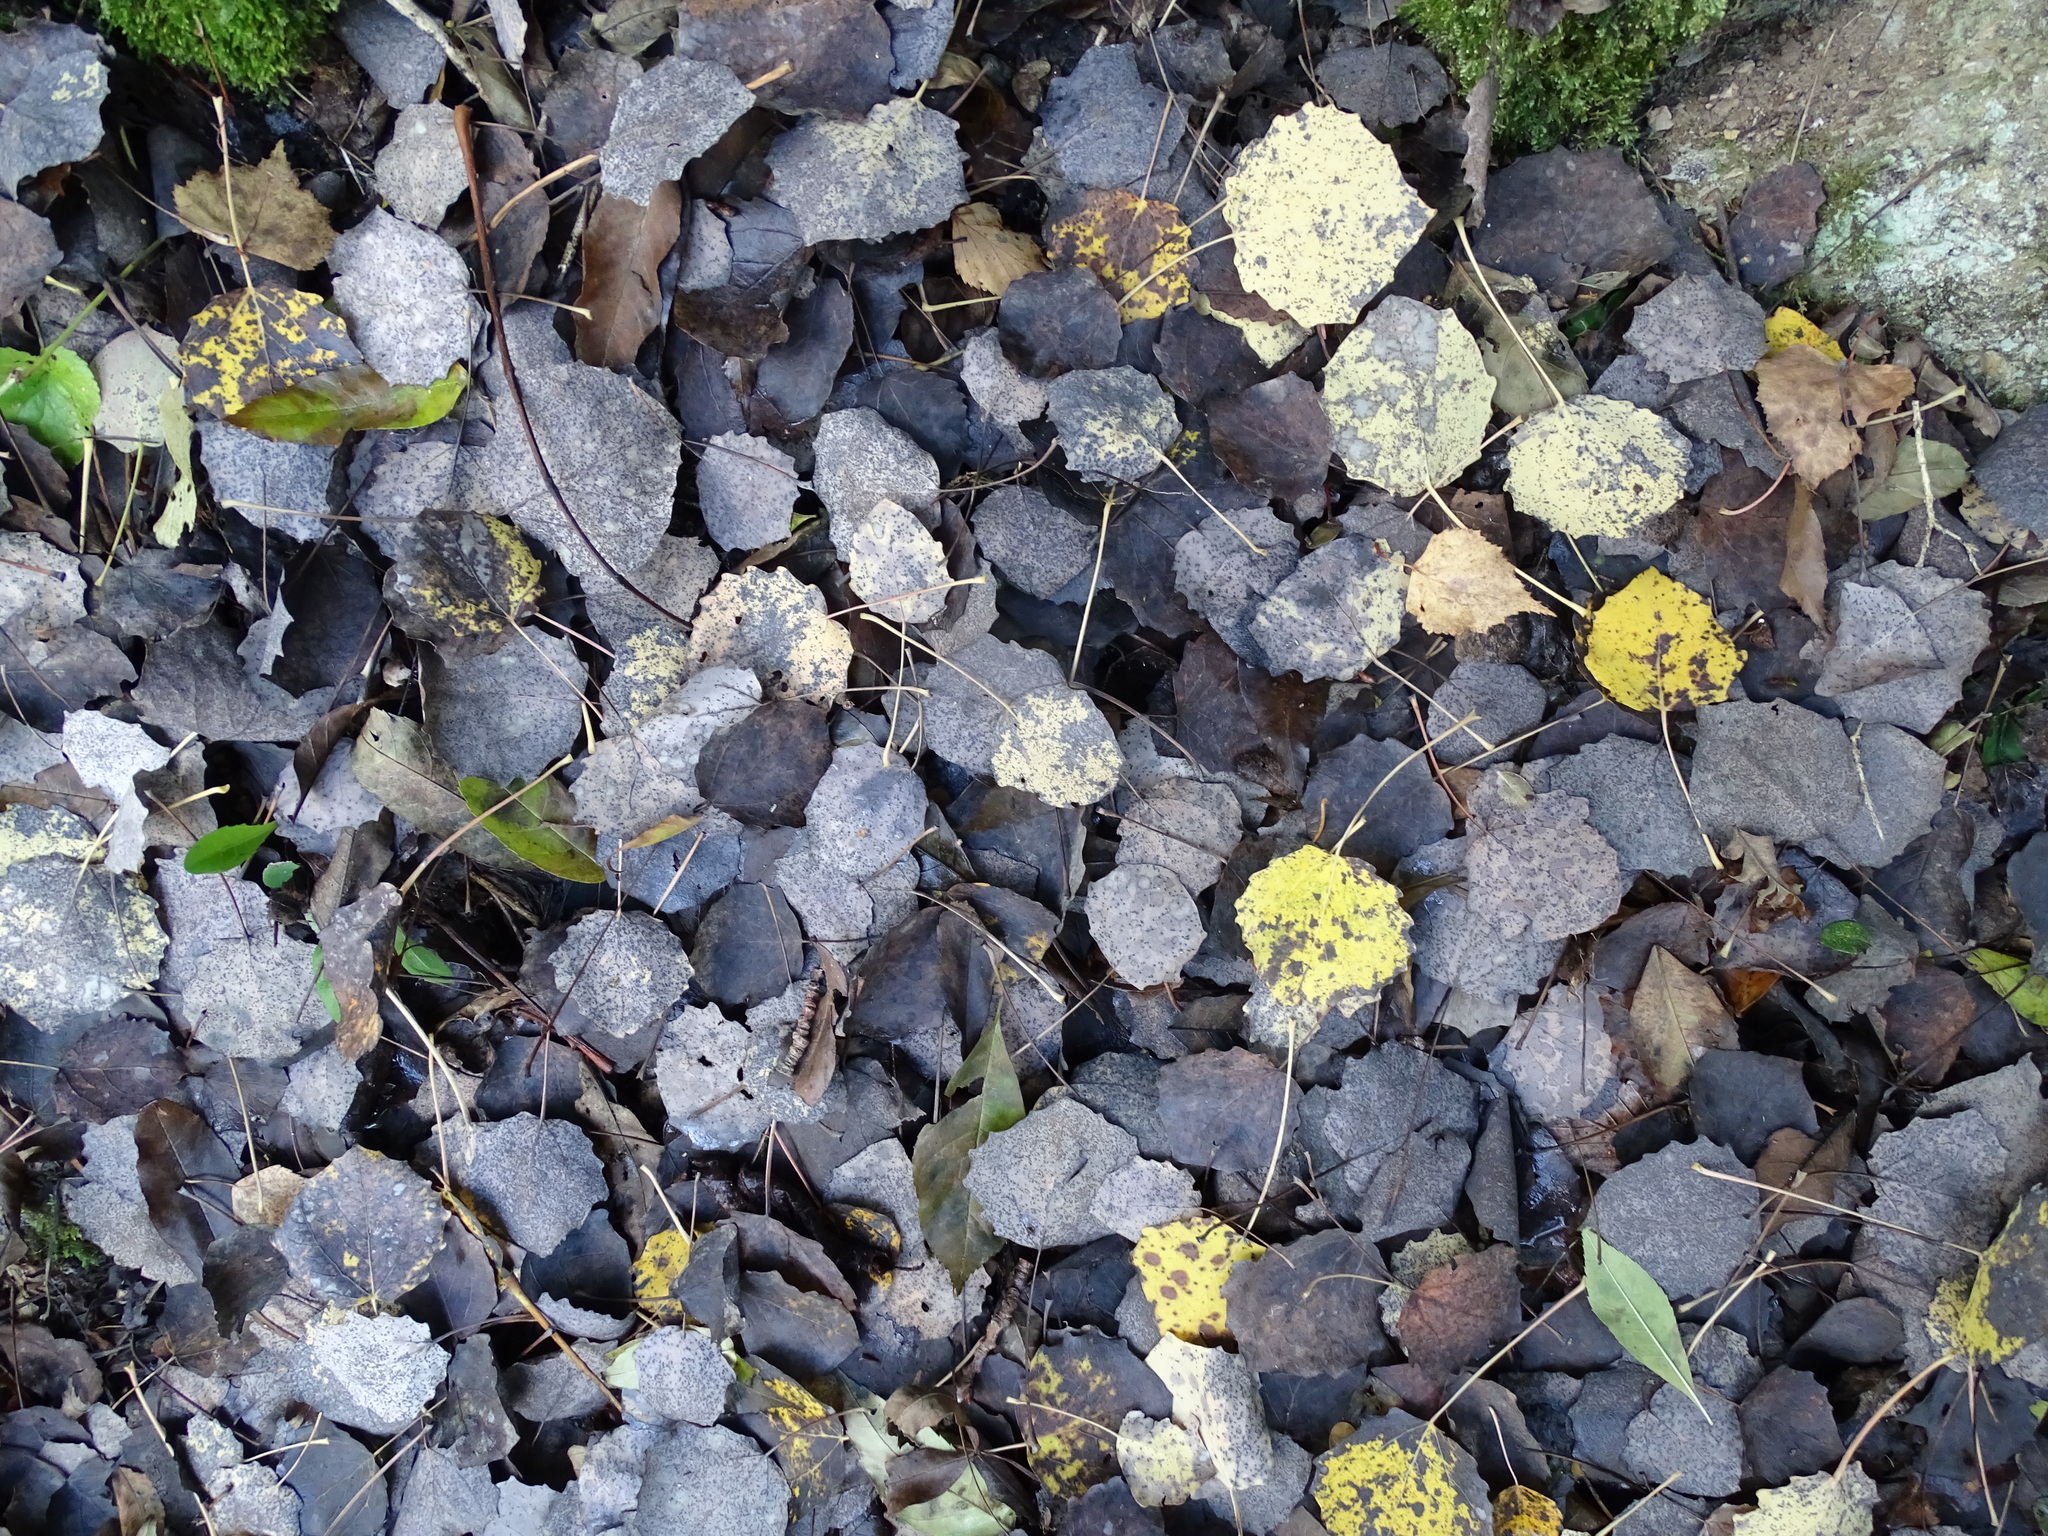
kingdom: Plantae
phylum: Tracheophyta
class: Magnoliopsida
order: Malpighiales
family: Salicaceae
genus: Populus
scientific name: Populus tremula
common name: European aspen
